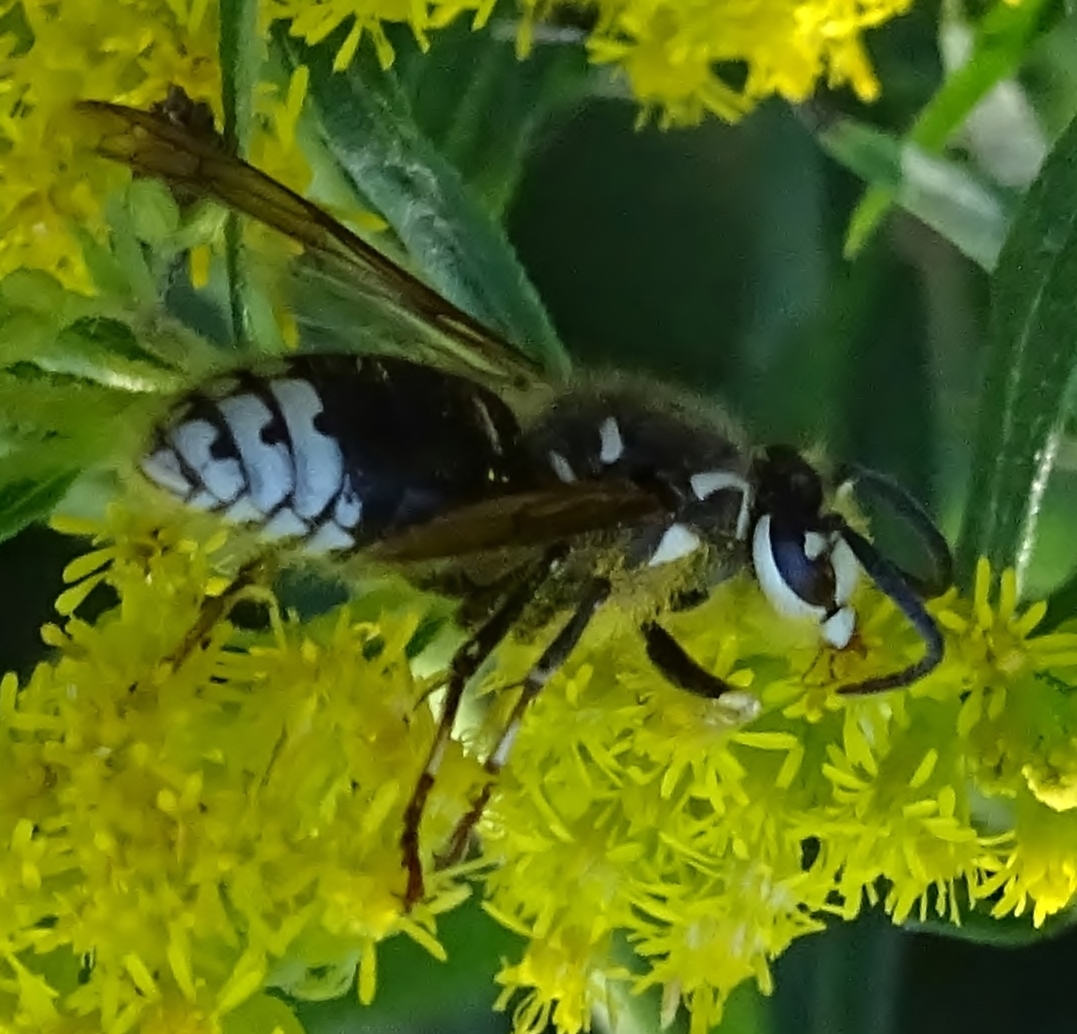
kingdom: Animalia
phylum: Arthropoda
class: Insecta
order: Hymenoptera
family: Vespidae
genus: Dolichovespula
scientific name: Dolichovespula maculata
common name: Bald-faced hornet
